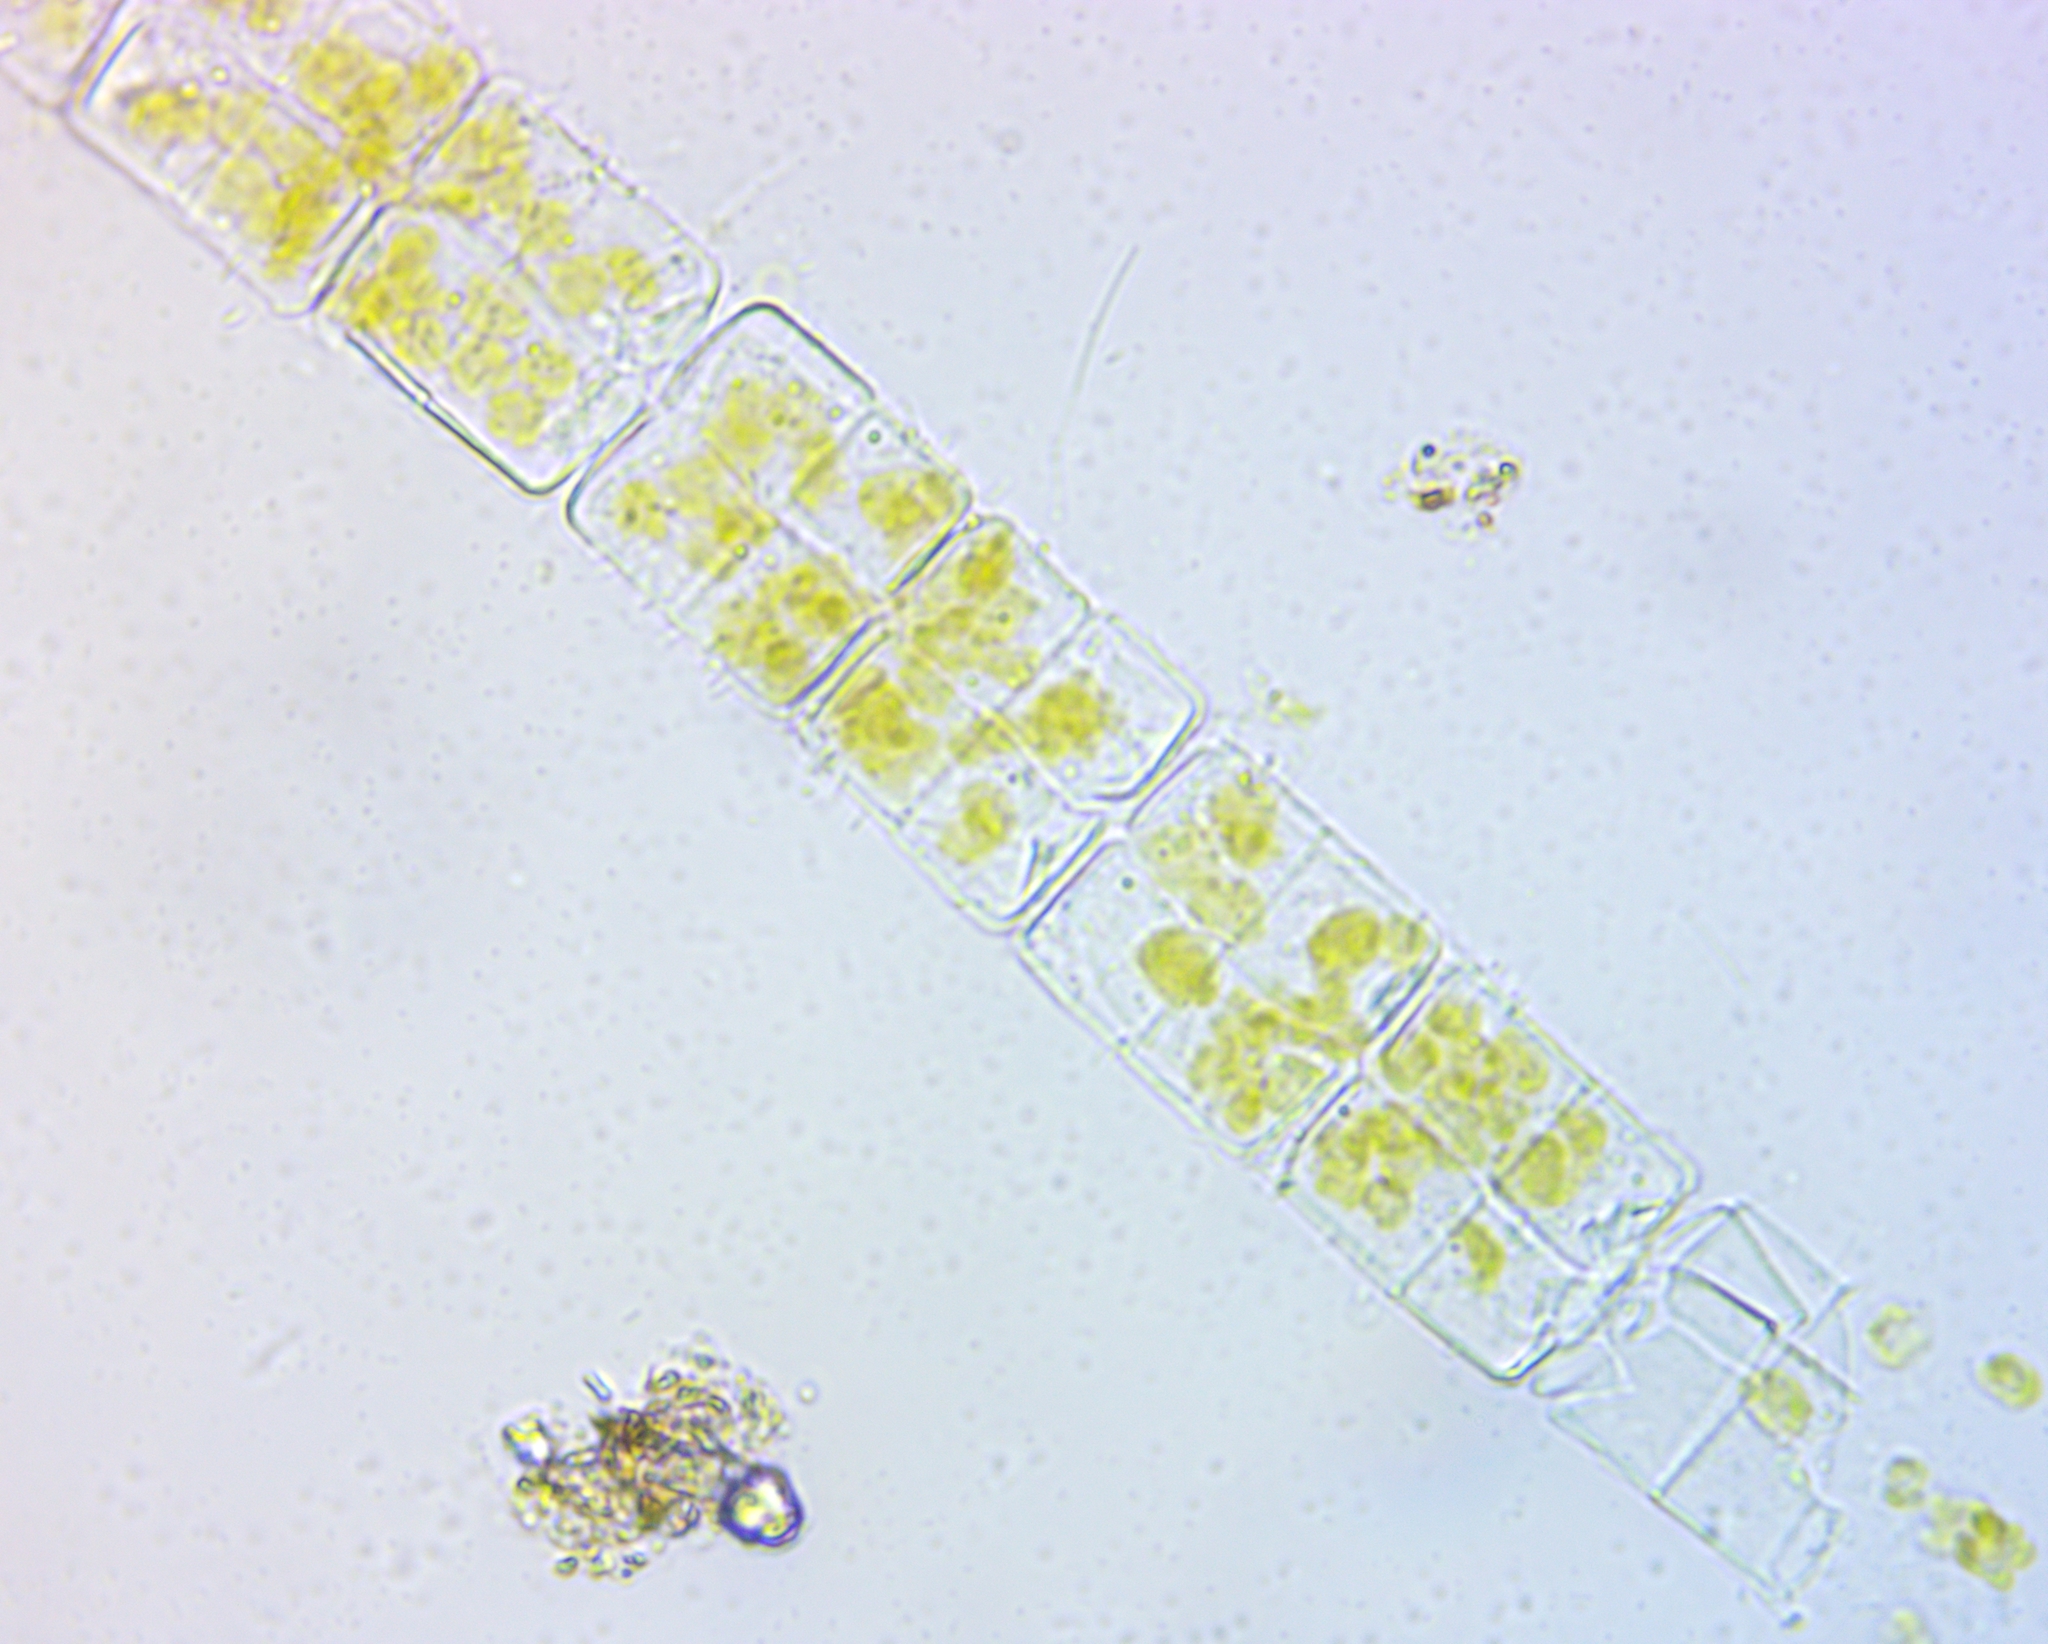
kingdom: Chromista
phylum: Ochrophyta
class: Bacillariophyceae
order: Melosirales
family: Melosiraceae
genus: Melosira
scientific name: Melosira varians
